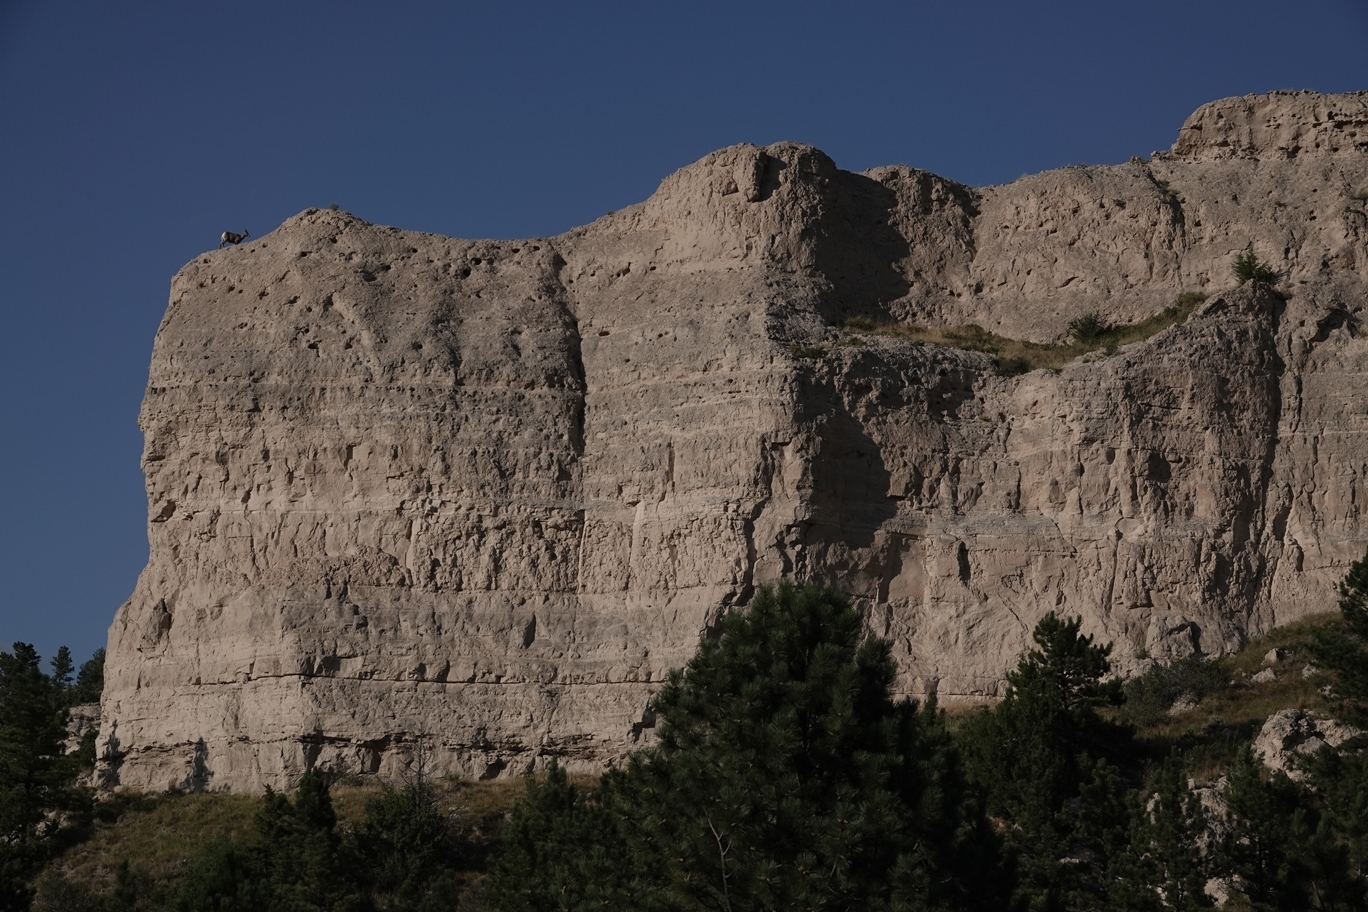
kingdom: Animalia
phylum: Chordata
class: Mammalia
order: Artiodactyla
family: Bovidae
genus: Ovis
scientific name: Ovis canadensis
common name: Bighorn sheep
